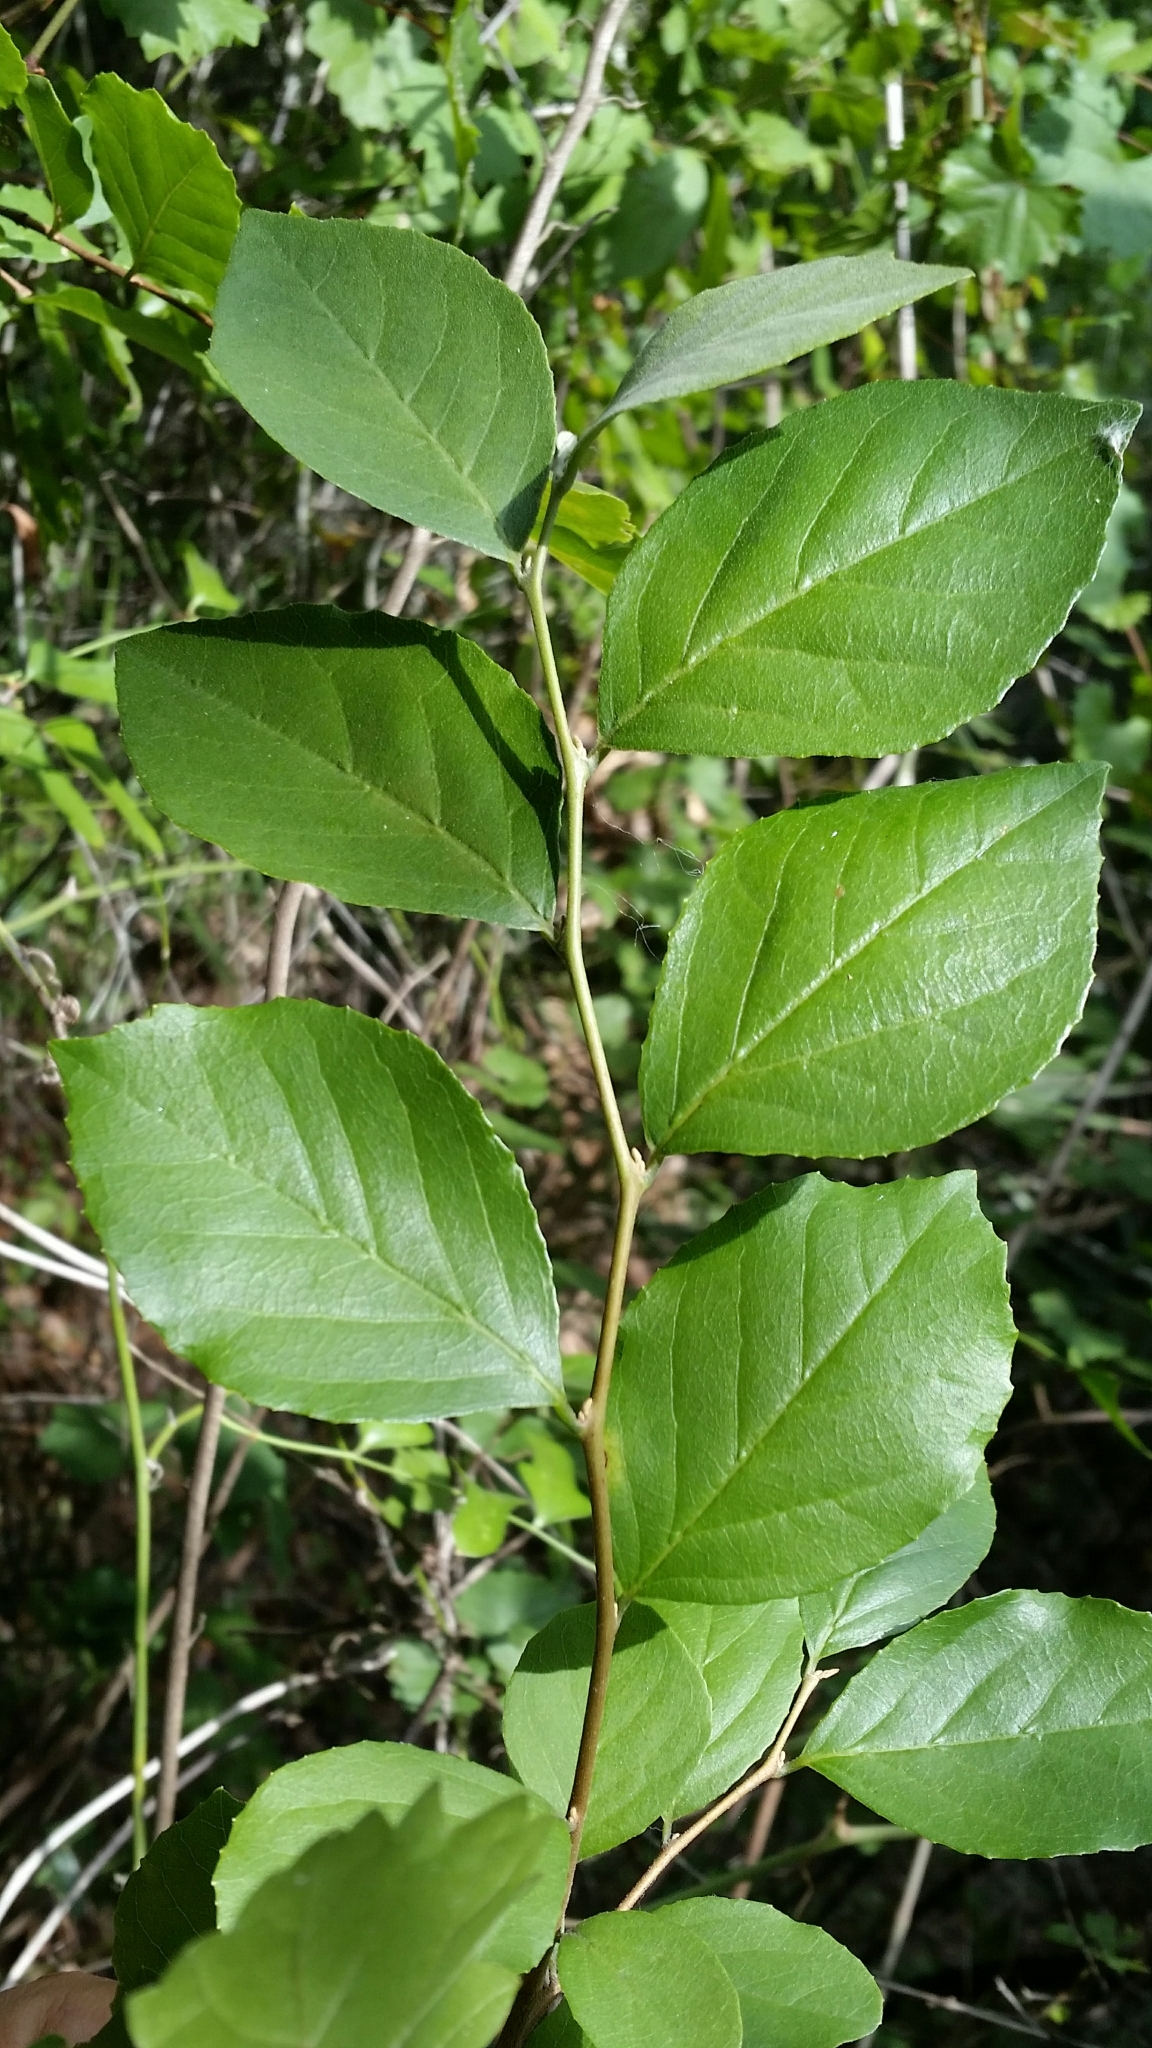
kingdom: Plantae
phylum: Tracheophyta
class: Magnoliopsida
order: Ericales
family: Styracaceae
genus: Styrax
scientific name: Styrax americanus
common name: American snowbell
